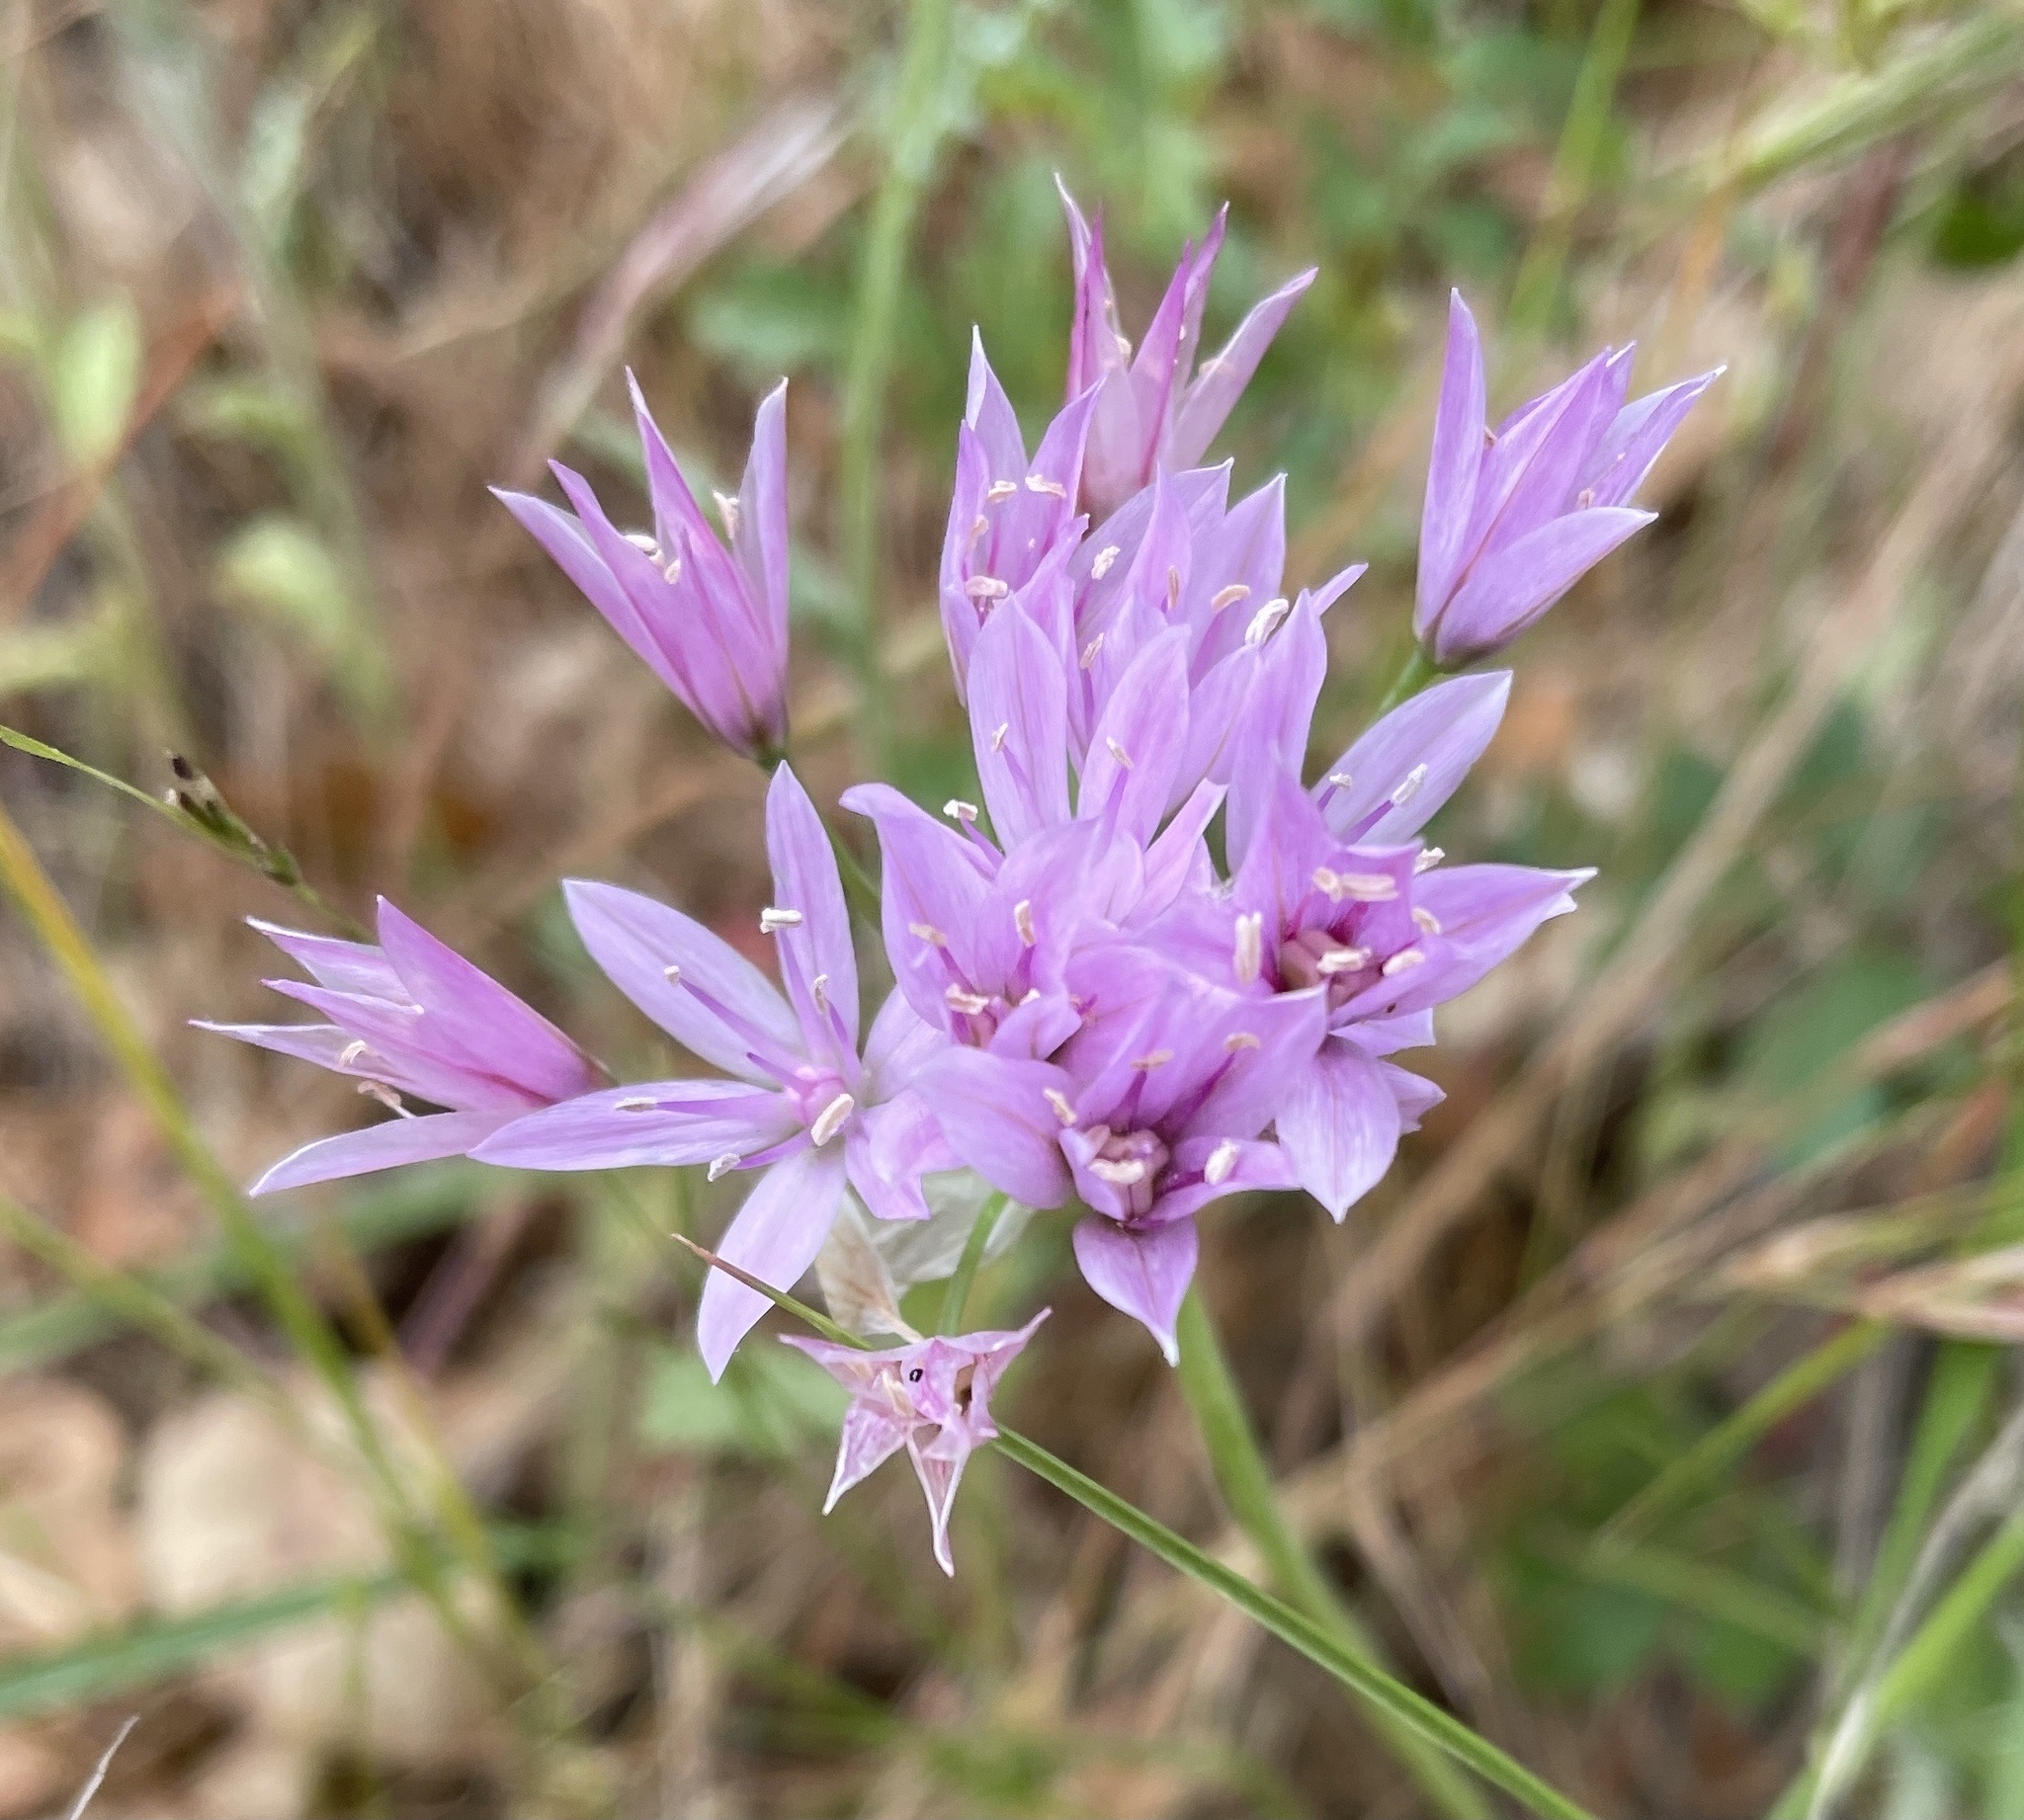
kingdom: Plantae
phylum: Tracheophyta
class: Liliopsida
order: Asparagales
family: Amaryllidaceae
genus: Allium
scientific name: Allium unifolium
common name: American garlic
